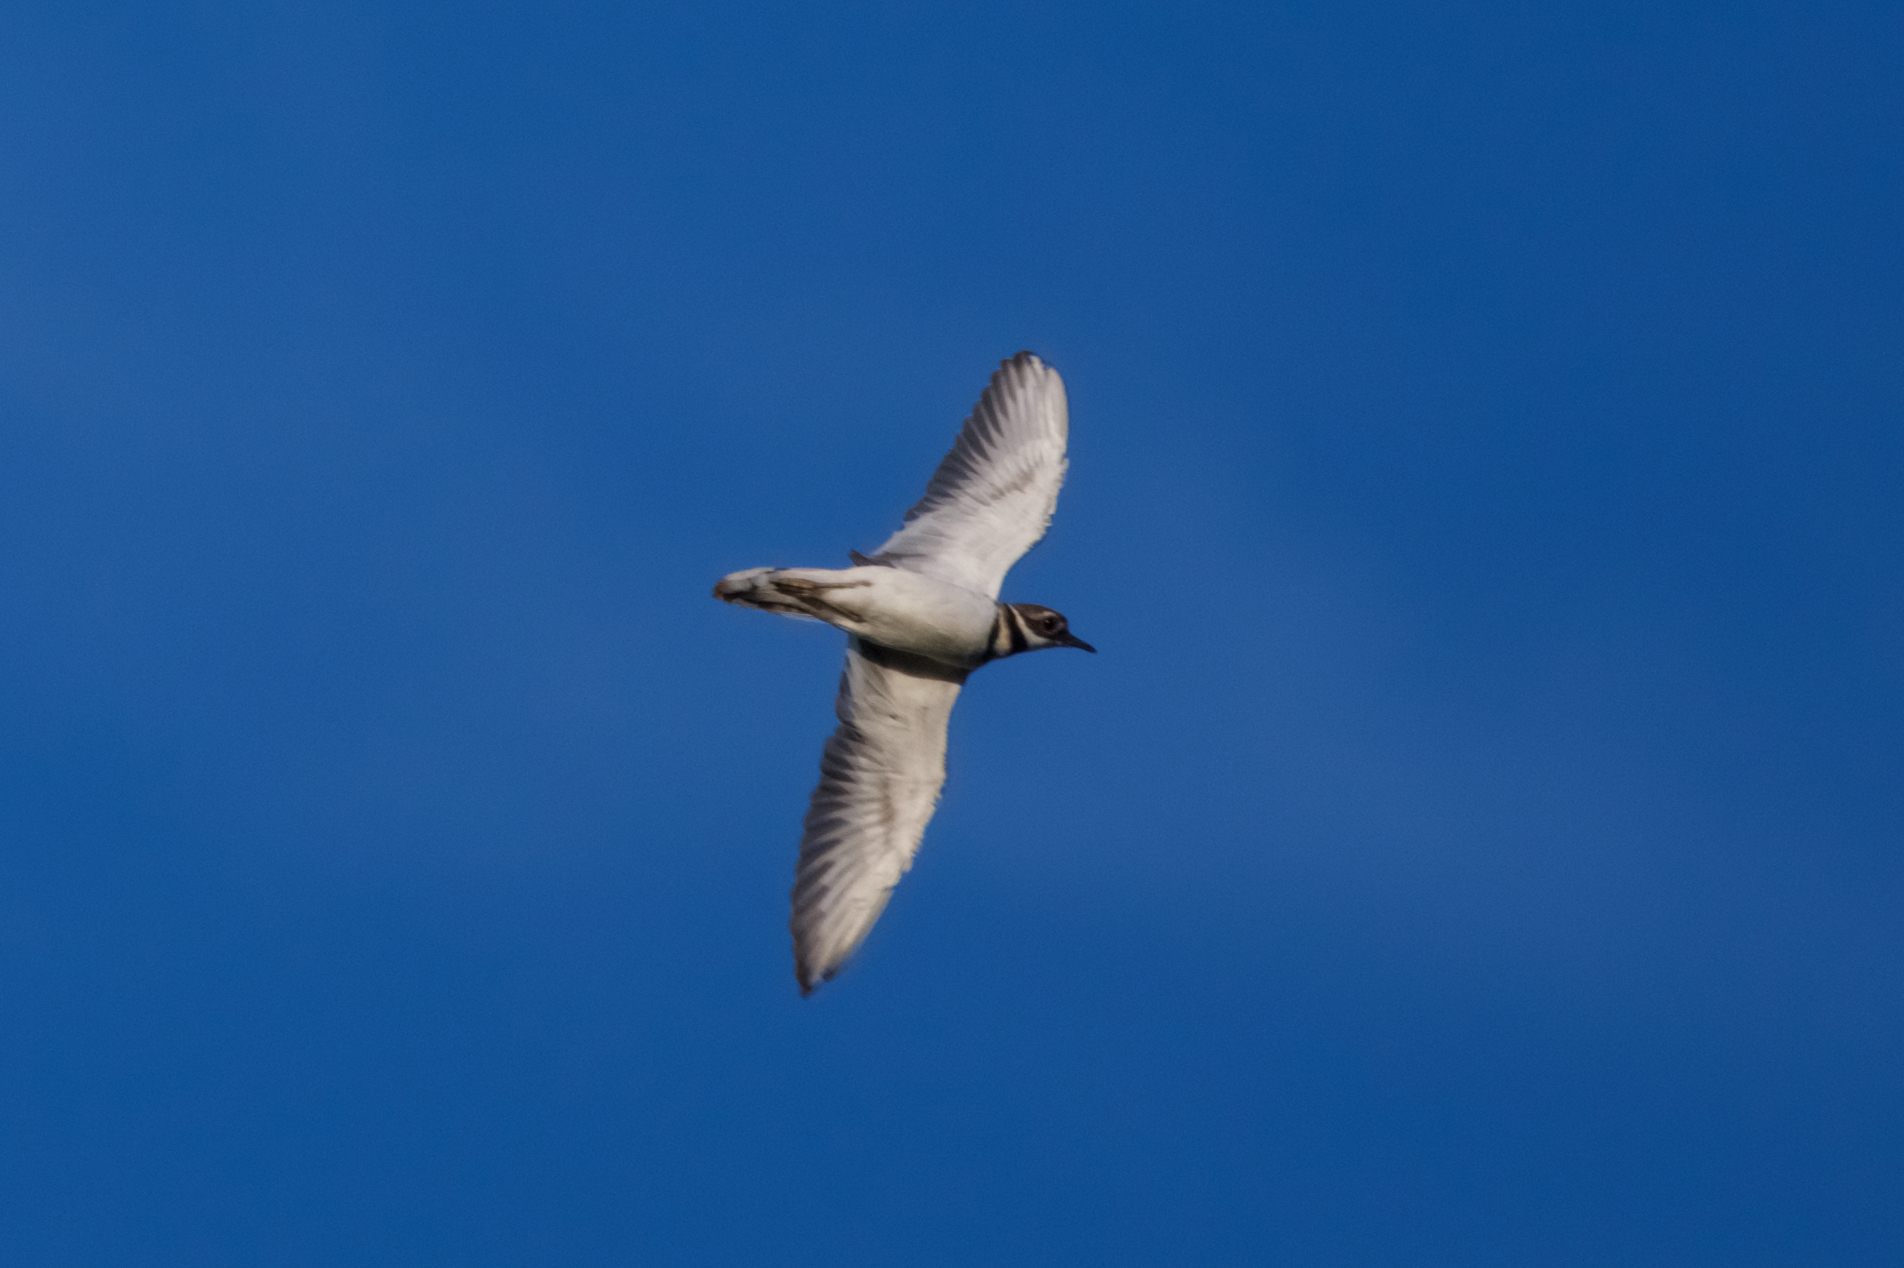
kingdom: Animalia
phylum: Chordata
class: Aves
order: Charadriiformes
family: Charadriidae
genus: Charadrius
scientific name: Charadrius vociferus
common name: Killdeer
